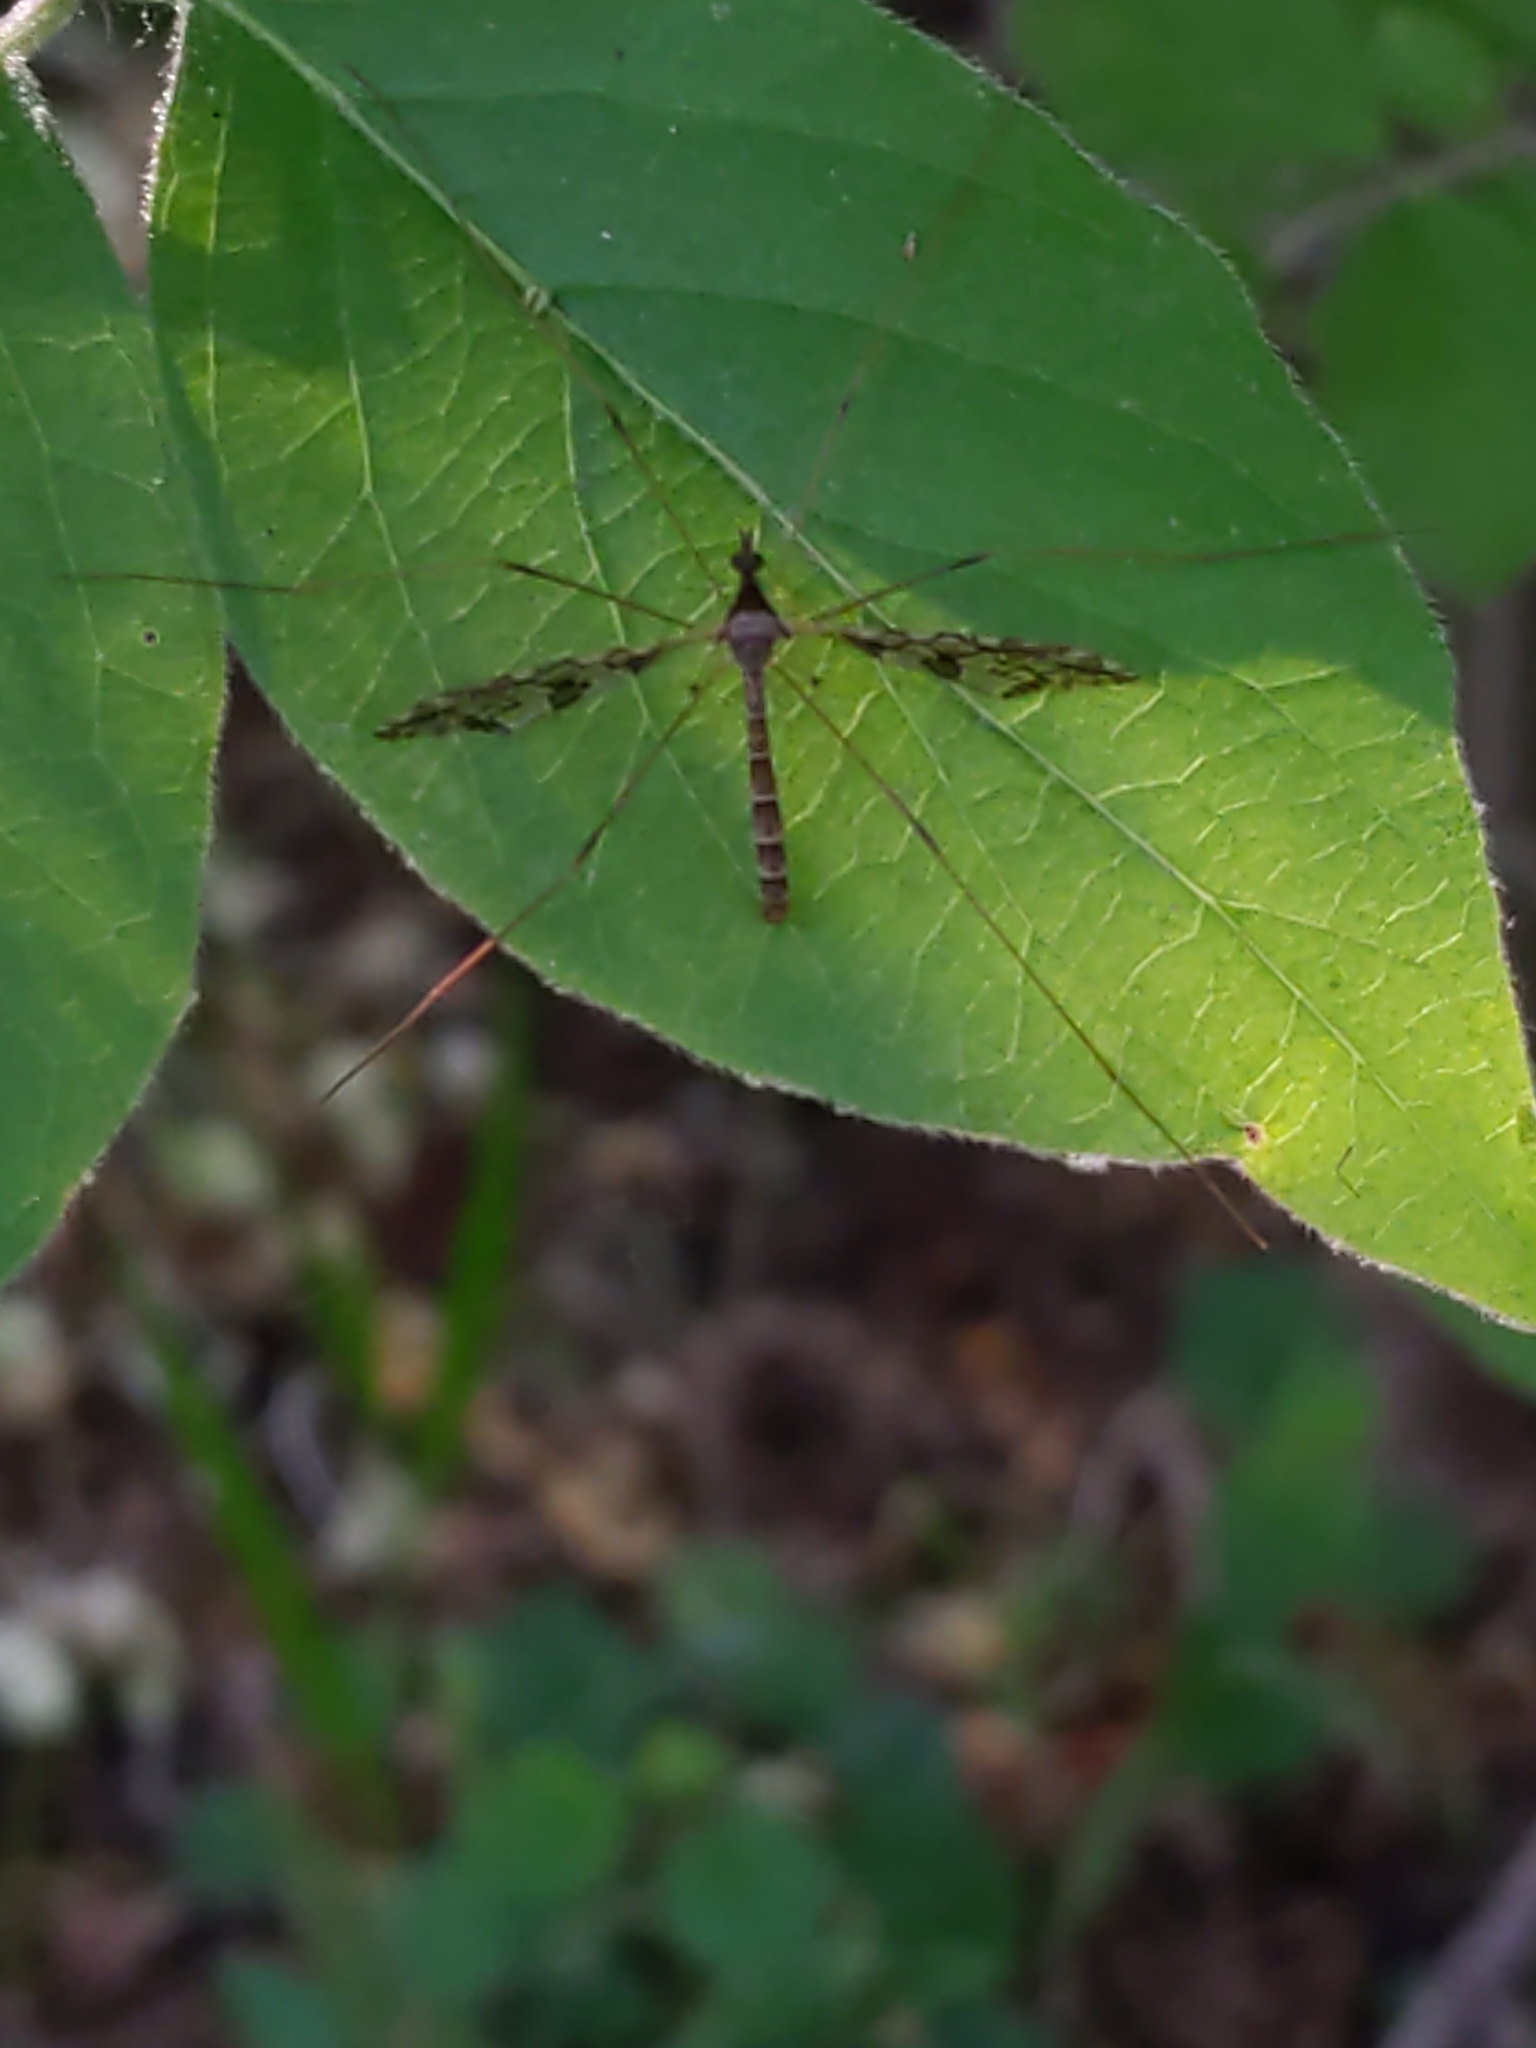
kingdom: Animalia
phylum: Arthropoda
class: Insecta
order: Diptera
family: Limoniidae
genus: Epiphragma
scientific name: Epiphragma solatrix
